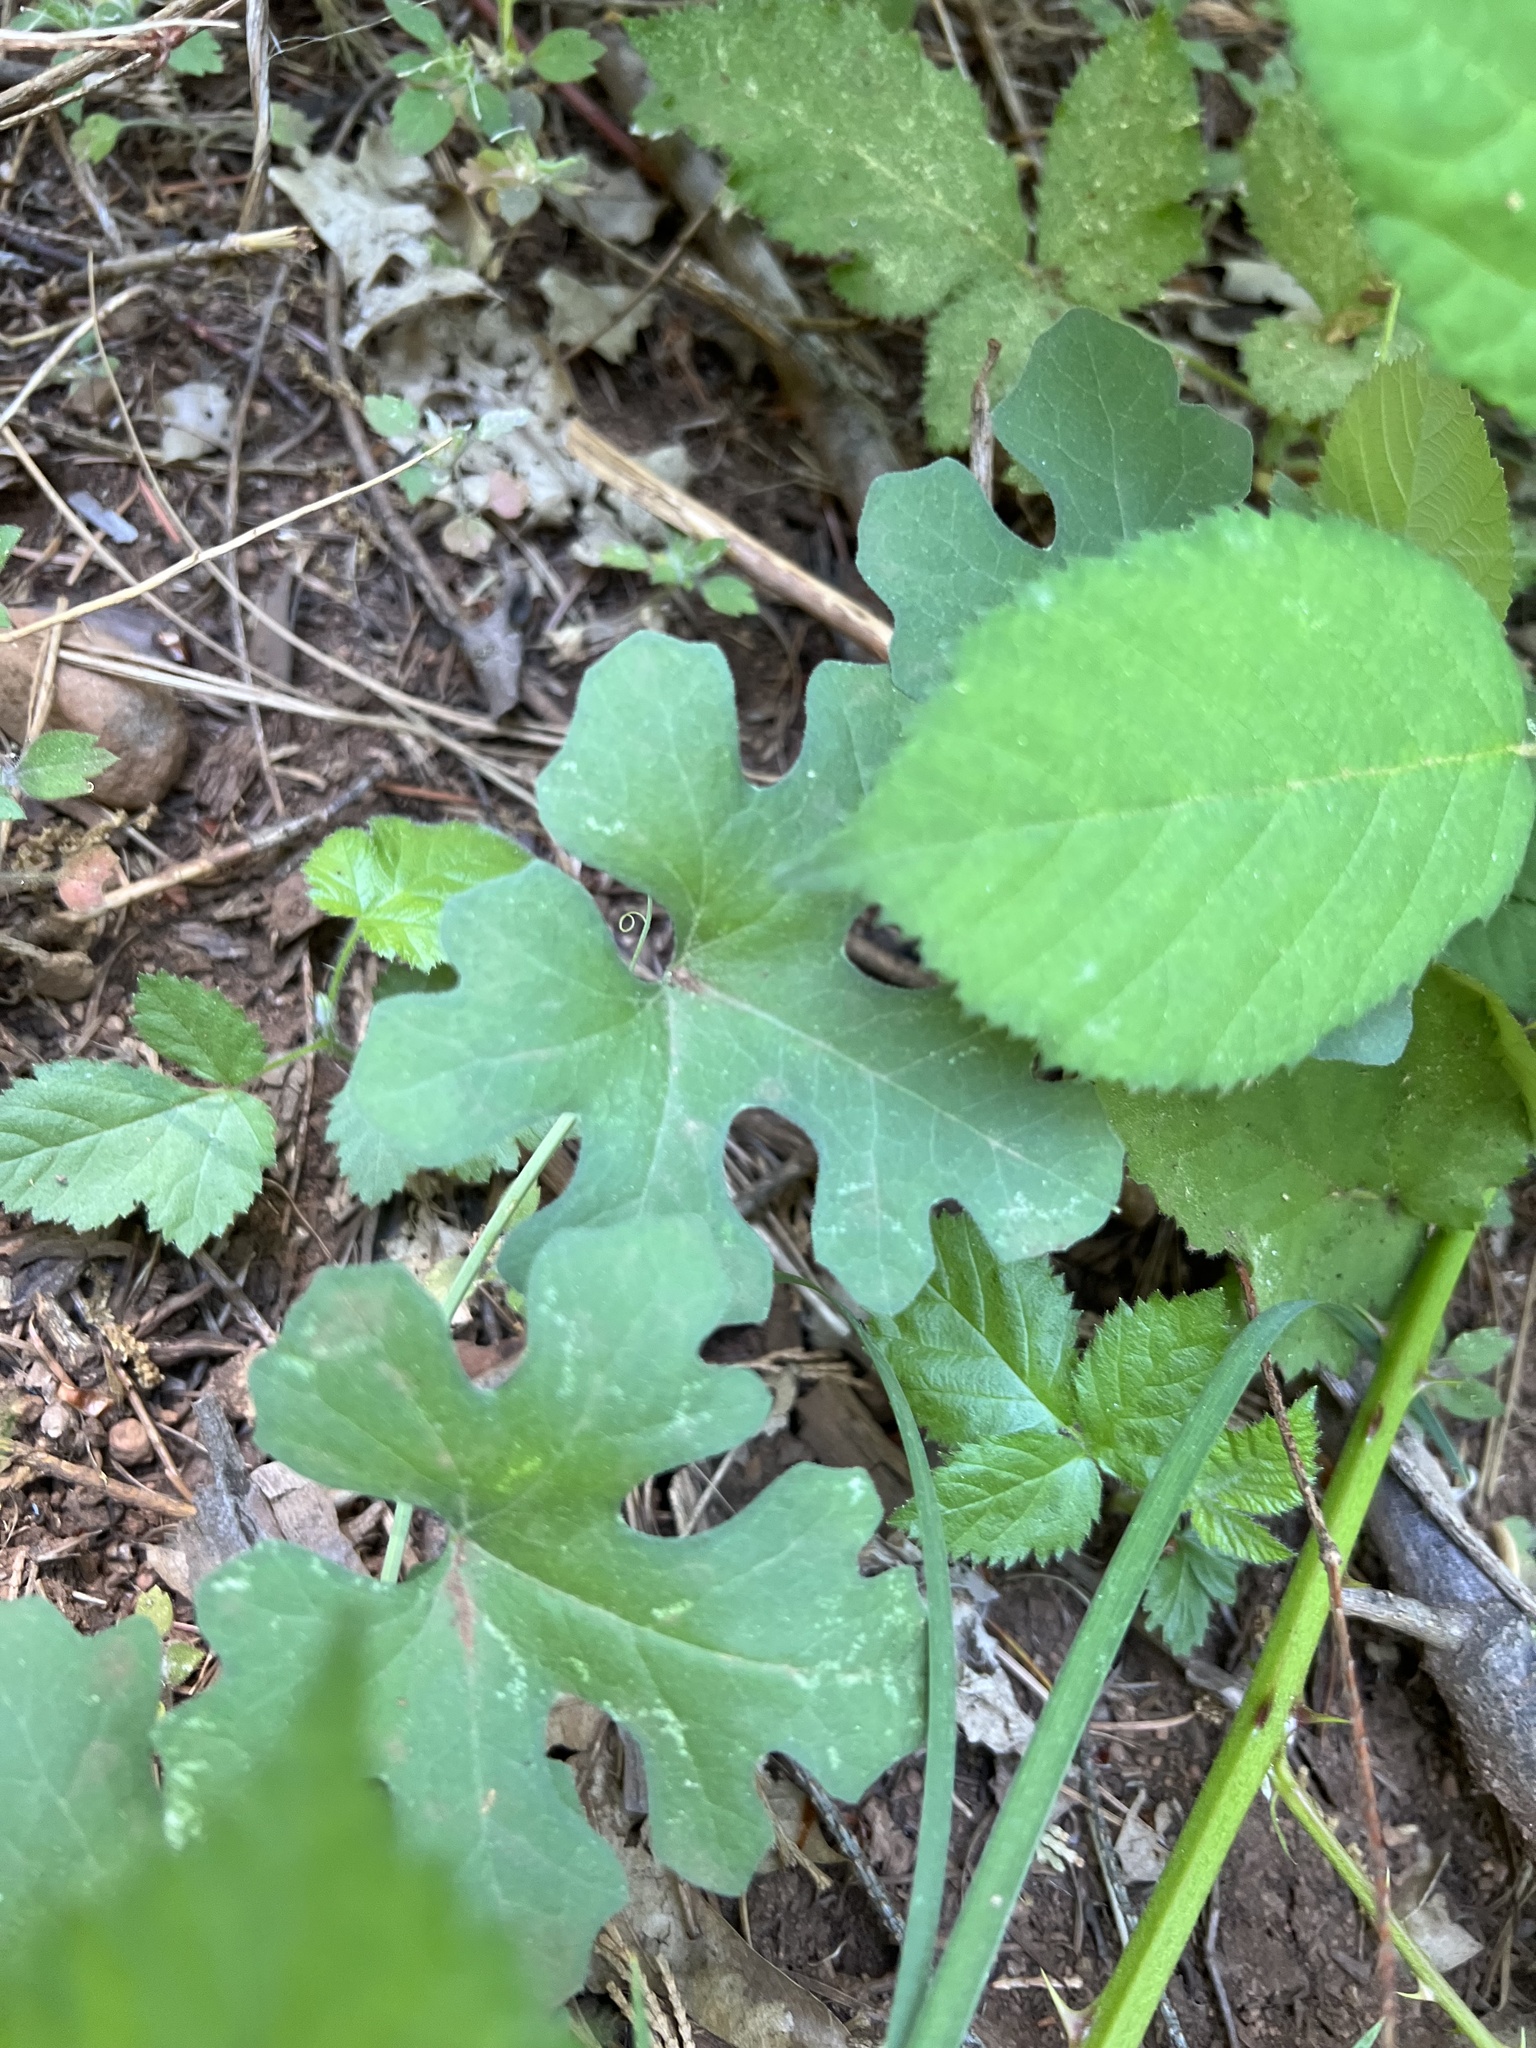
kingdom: Plantae
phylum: Tracheophyta
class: Magnoliopsida
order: Cucurbitales
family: Cucurbitaceae
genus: Marah
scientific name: Marah watsonii
